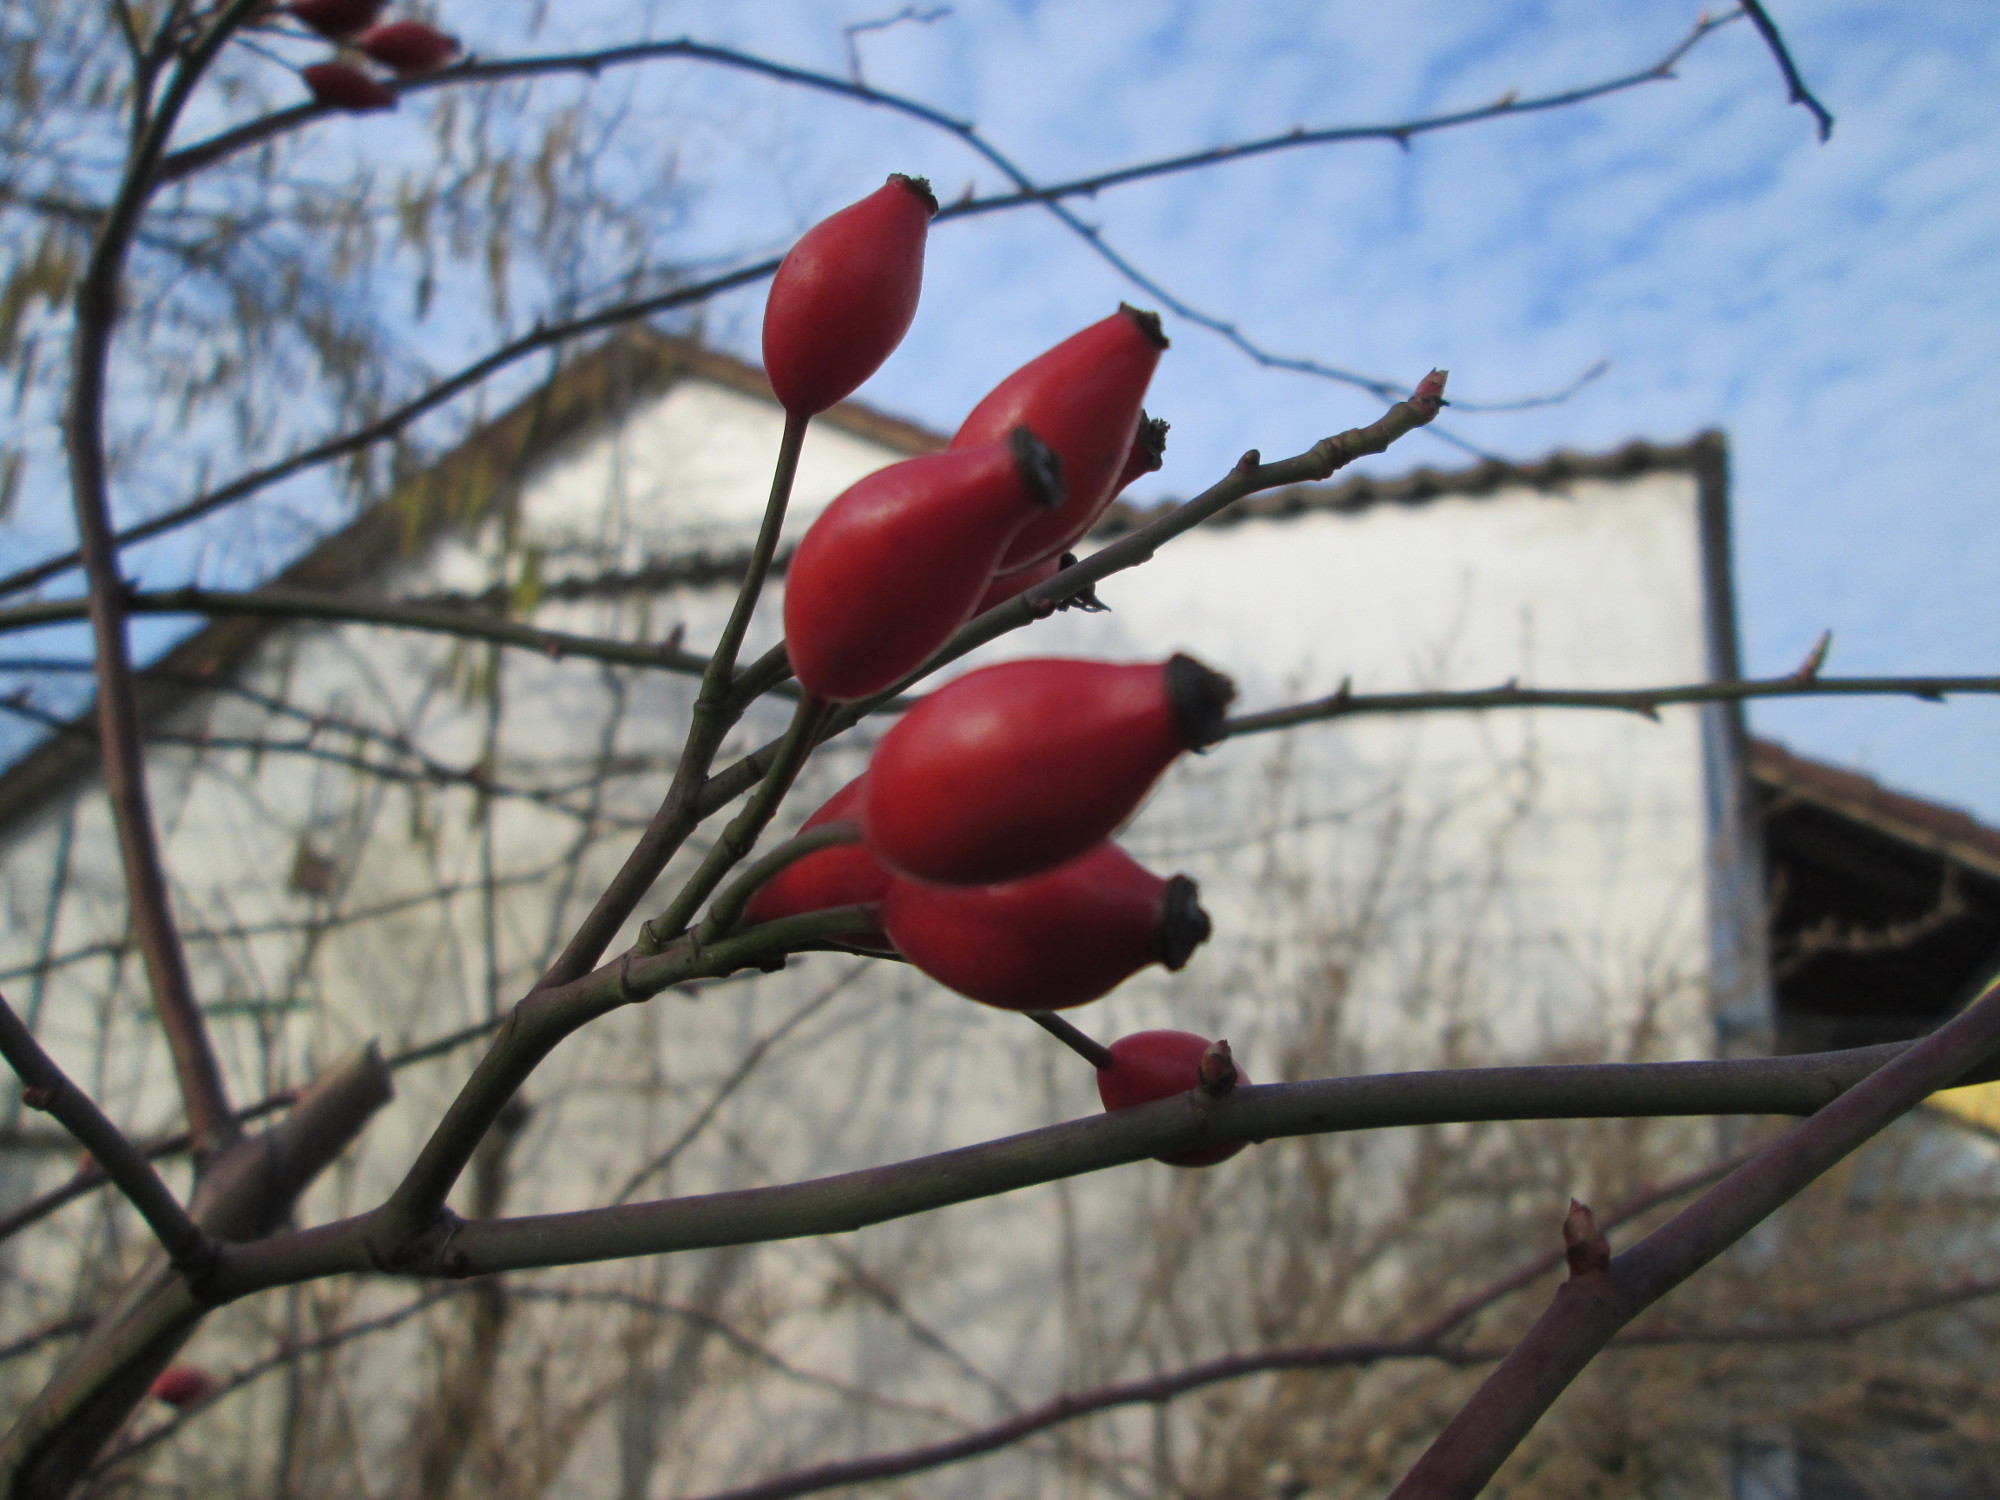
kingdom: Plantae
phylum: Tracheophyta
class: Magnoliopsida
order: Rosales
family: Rosaceae
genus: Rosa
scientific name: Rosa canina
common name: Dog rose
